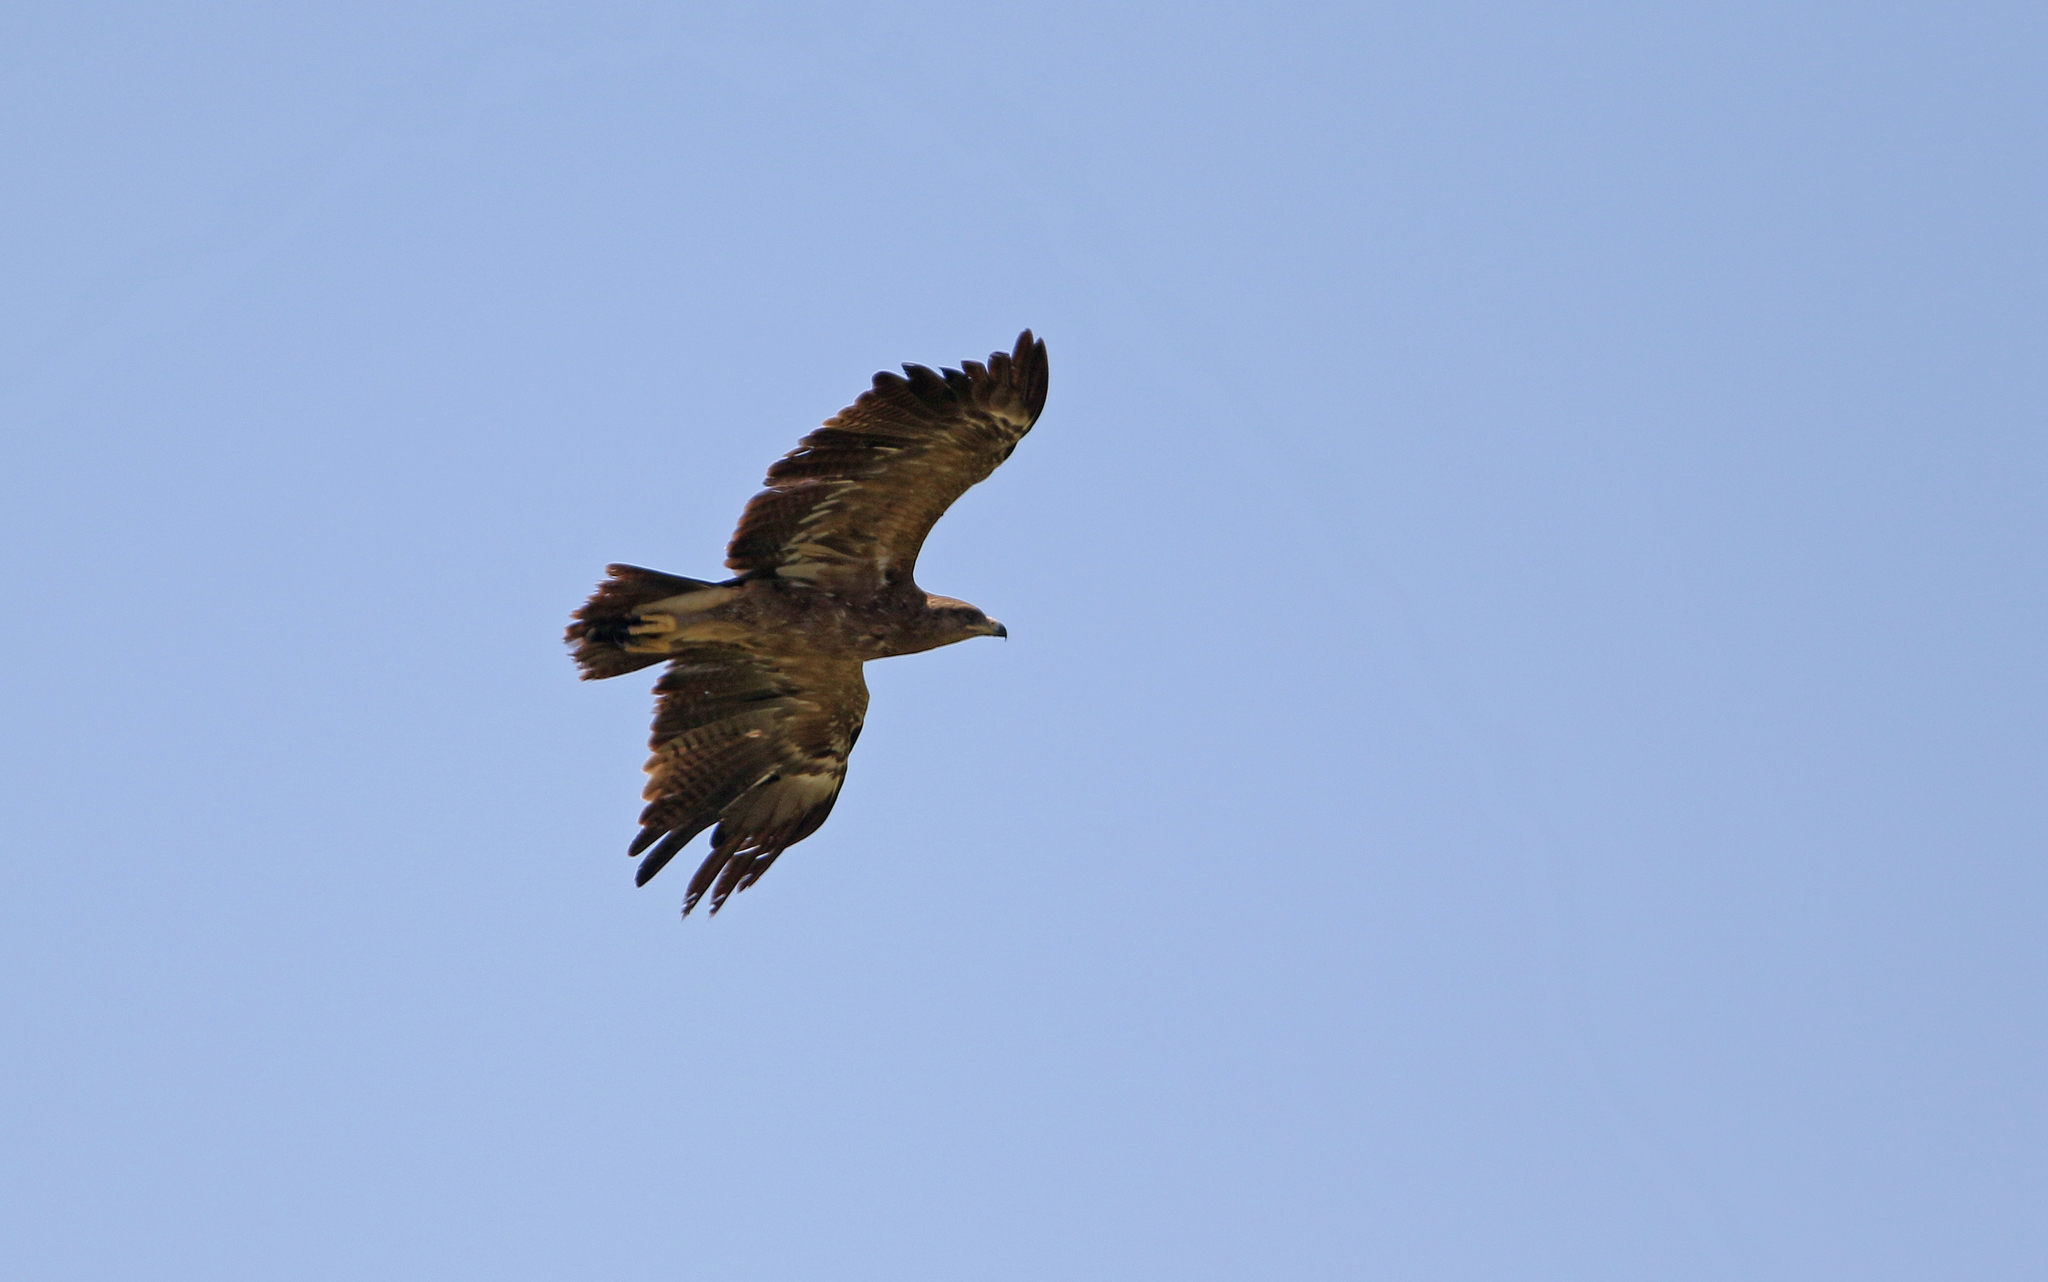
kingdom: Animalia
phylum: Chordata
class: Aves
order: Accipitriformes
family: Accipitridae
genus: Aquila
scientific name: Aquila pomarina
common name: Lesser spotted eagle
